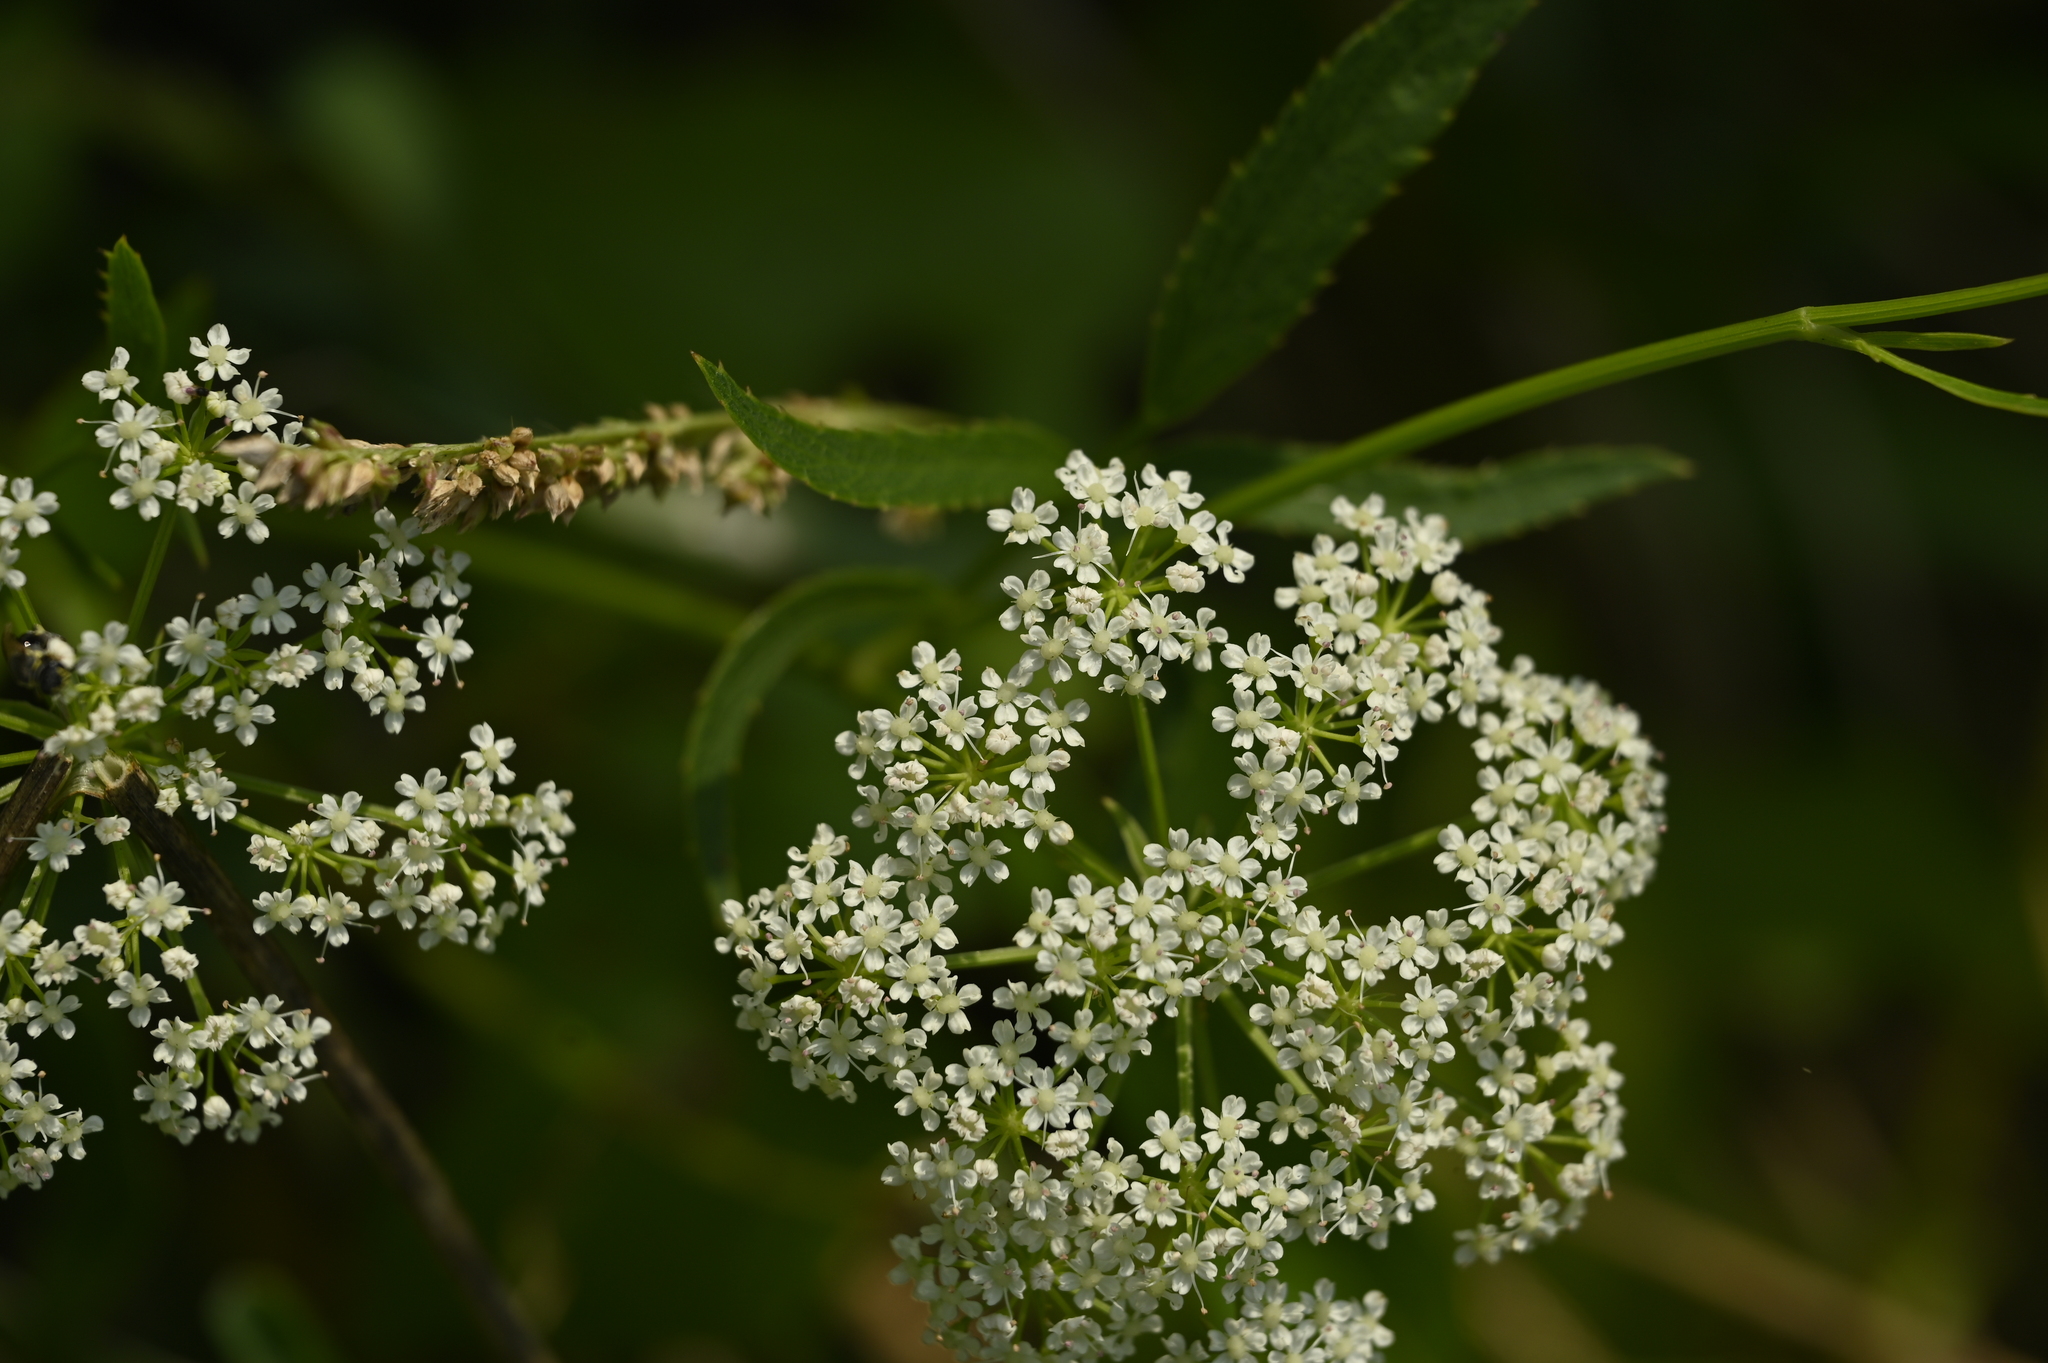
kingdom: Plantae
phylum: Tracheophyta
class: Magnoliopsida
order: Apiales
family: Apiaceae
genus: Sium
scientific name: Sium suave
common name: Hemlock water-parsnip
